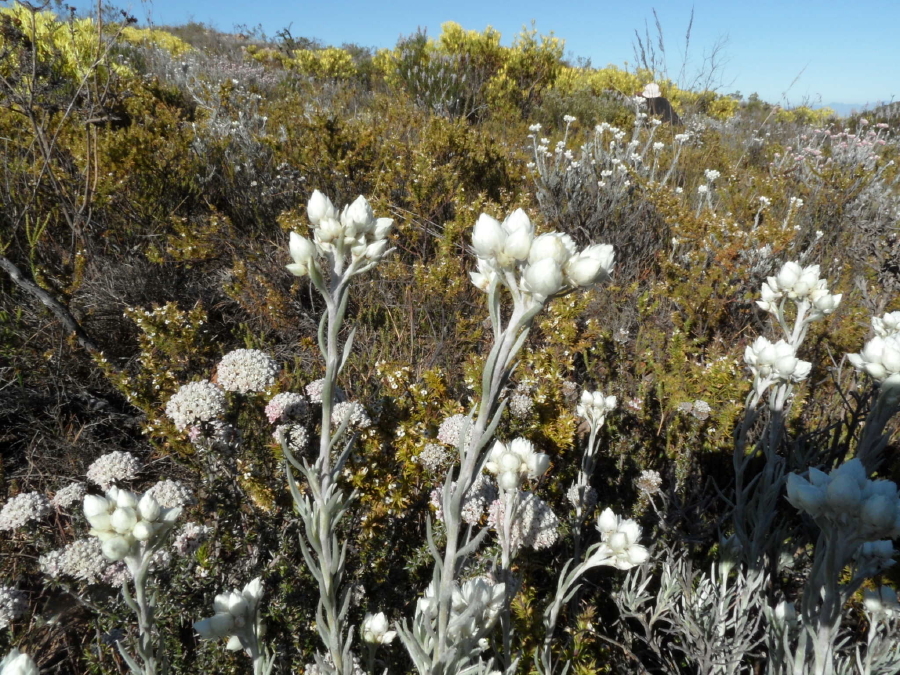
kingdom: Plantae
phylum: Tracheophyta
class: Magnoliopsida
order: Asterales
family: Asteraceae
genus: Achyranthemum
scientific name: Achyranthemum paniculatum
